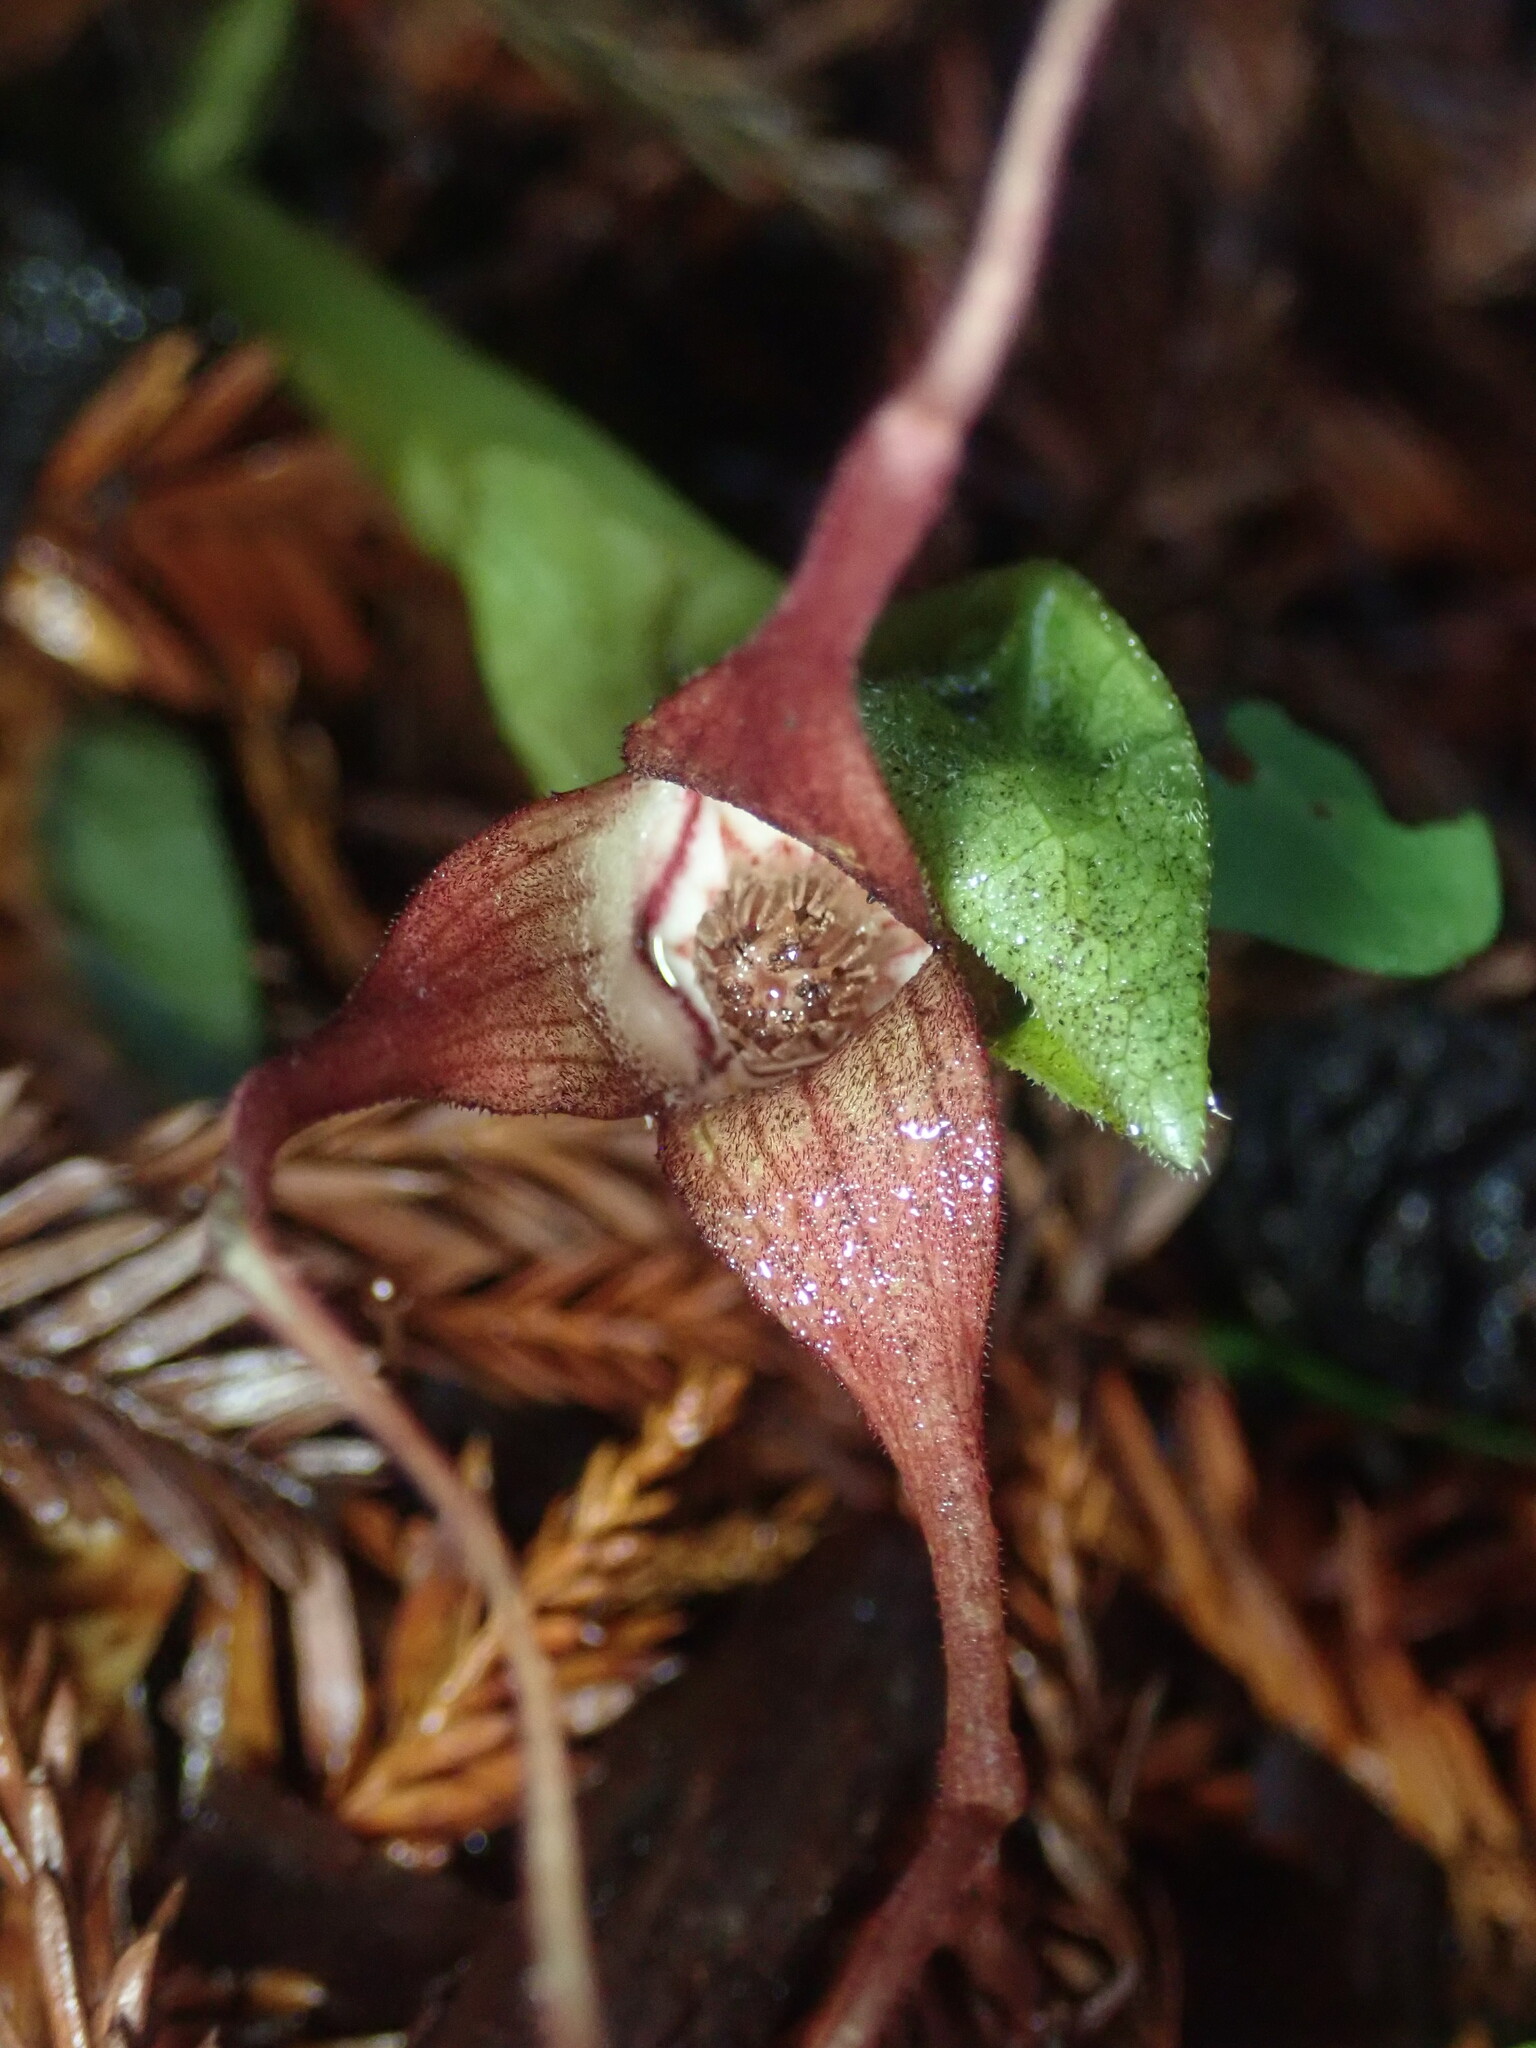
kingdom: Plantae
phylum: Tracheophyta
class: Magnoliopsida
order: Piperales
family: Aristolochiaceae
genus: Asarum
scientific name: Asarum caudatum
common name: Wild ginger
